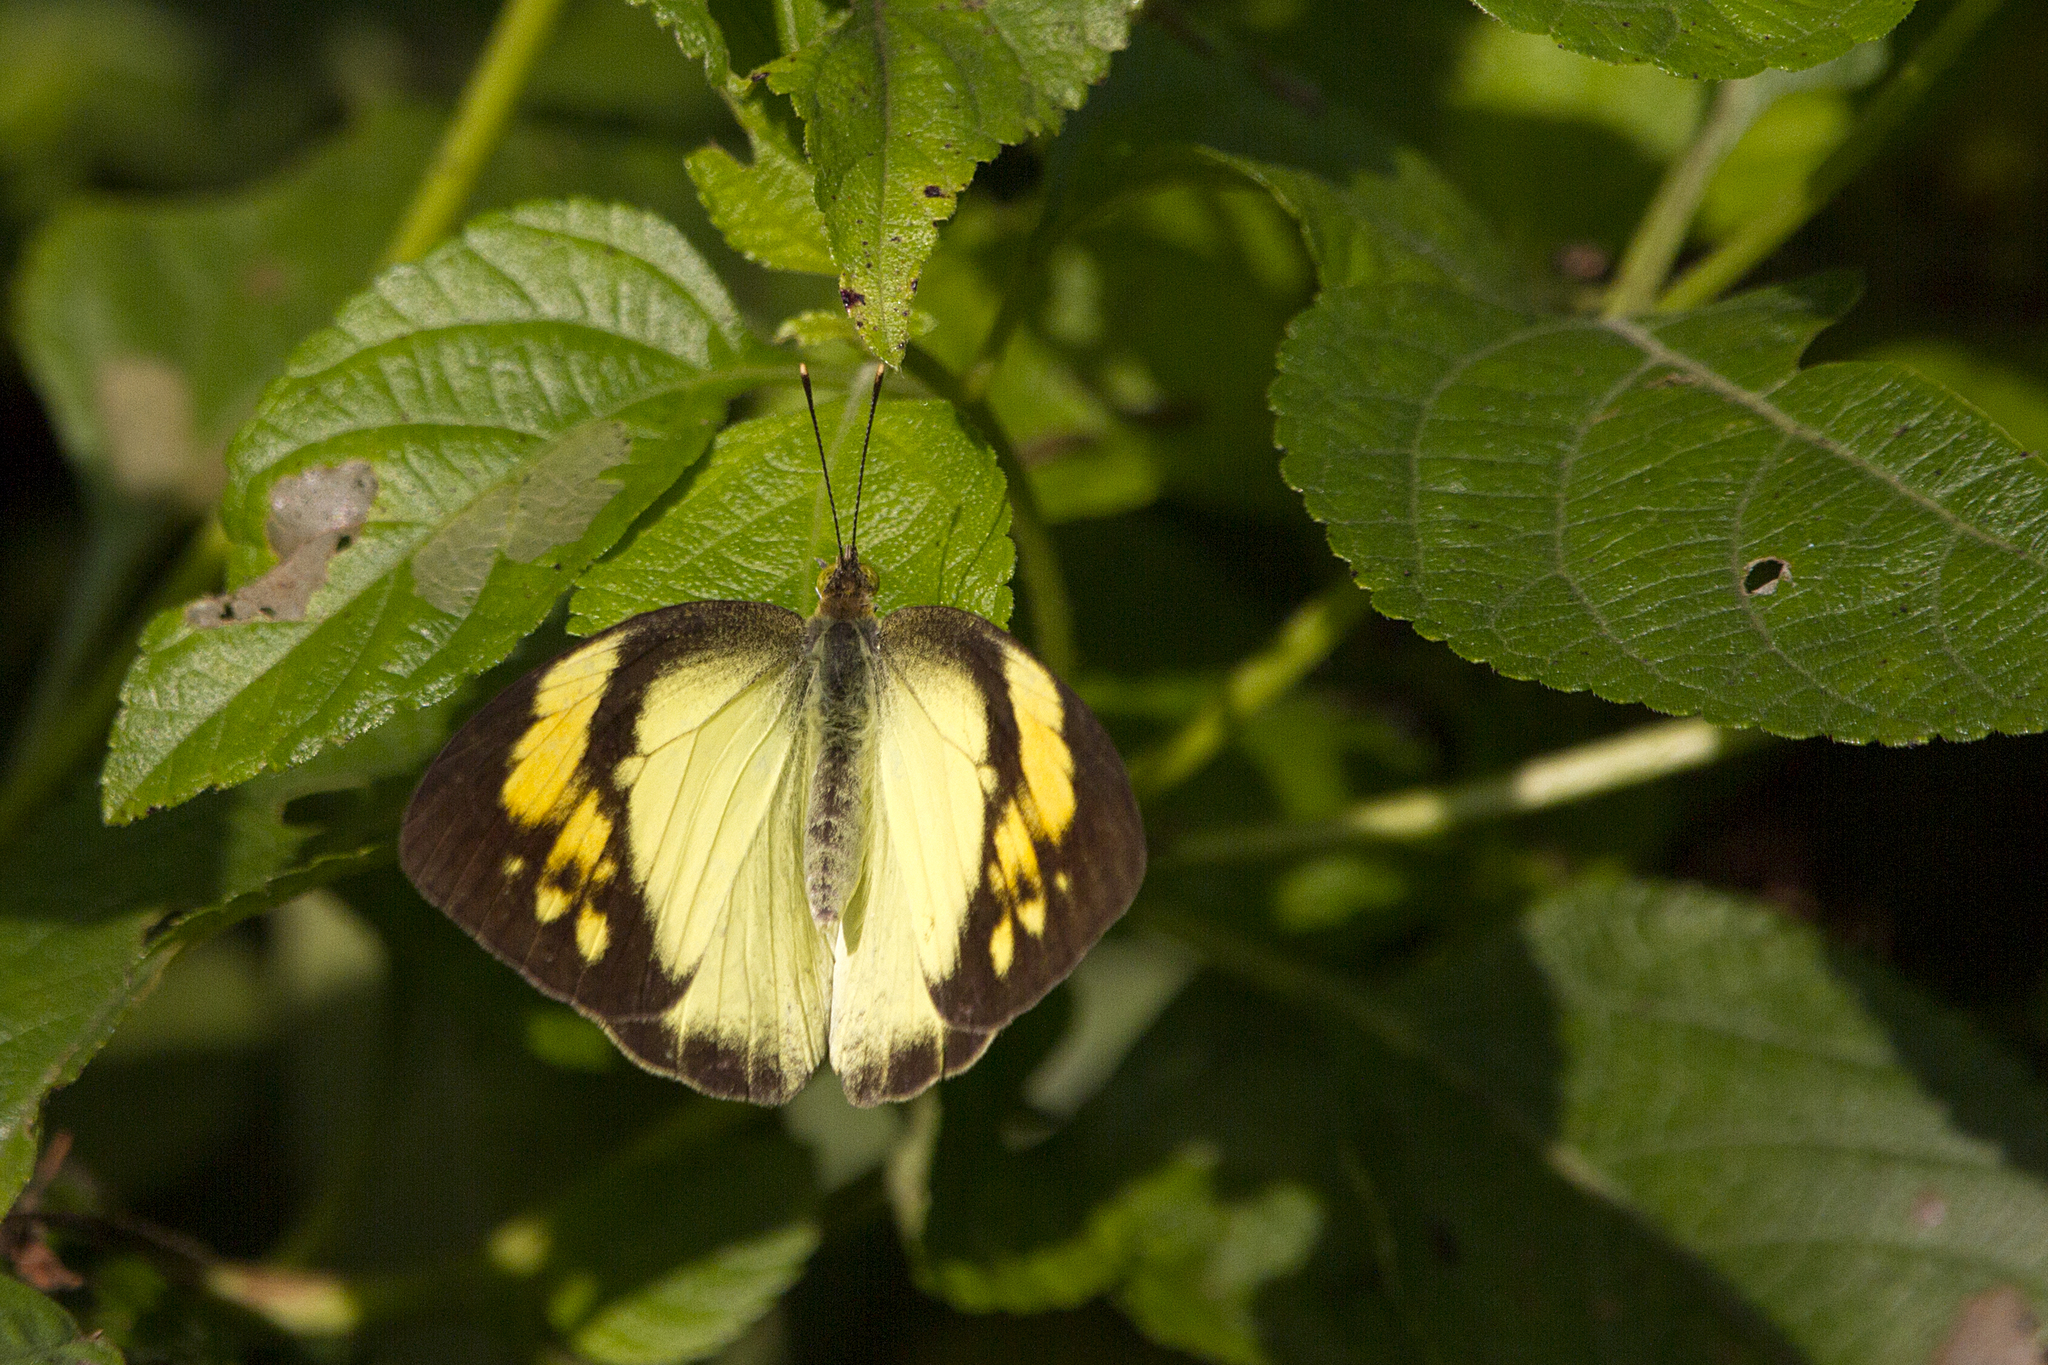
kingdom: Animalia
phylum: Arthropoda
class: Insecta
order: Lepidoptera
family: Pieridae
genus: Ixias
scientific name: Ixias pyrene
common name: Yellow orange tip
